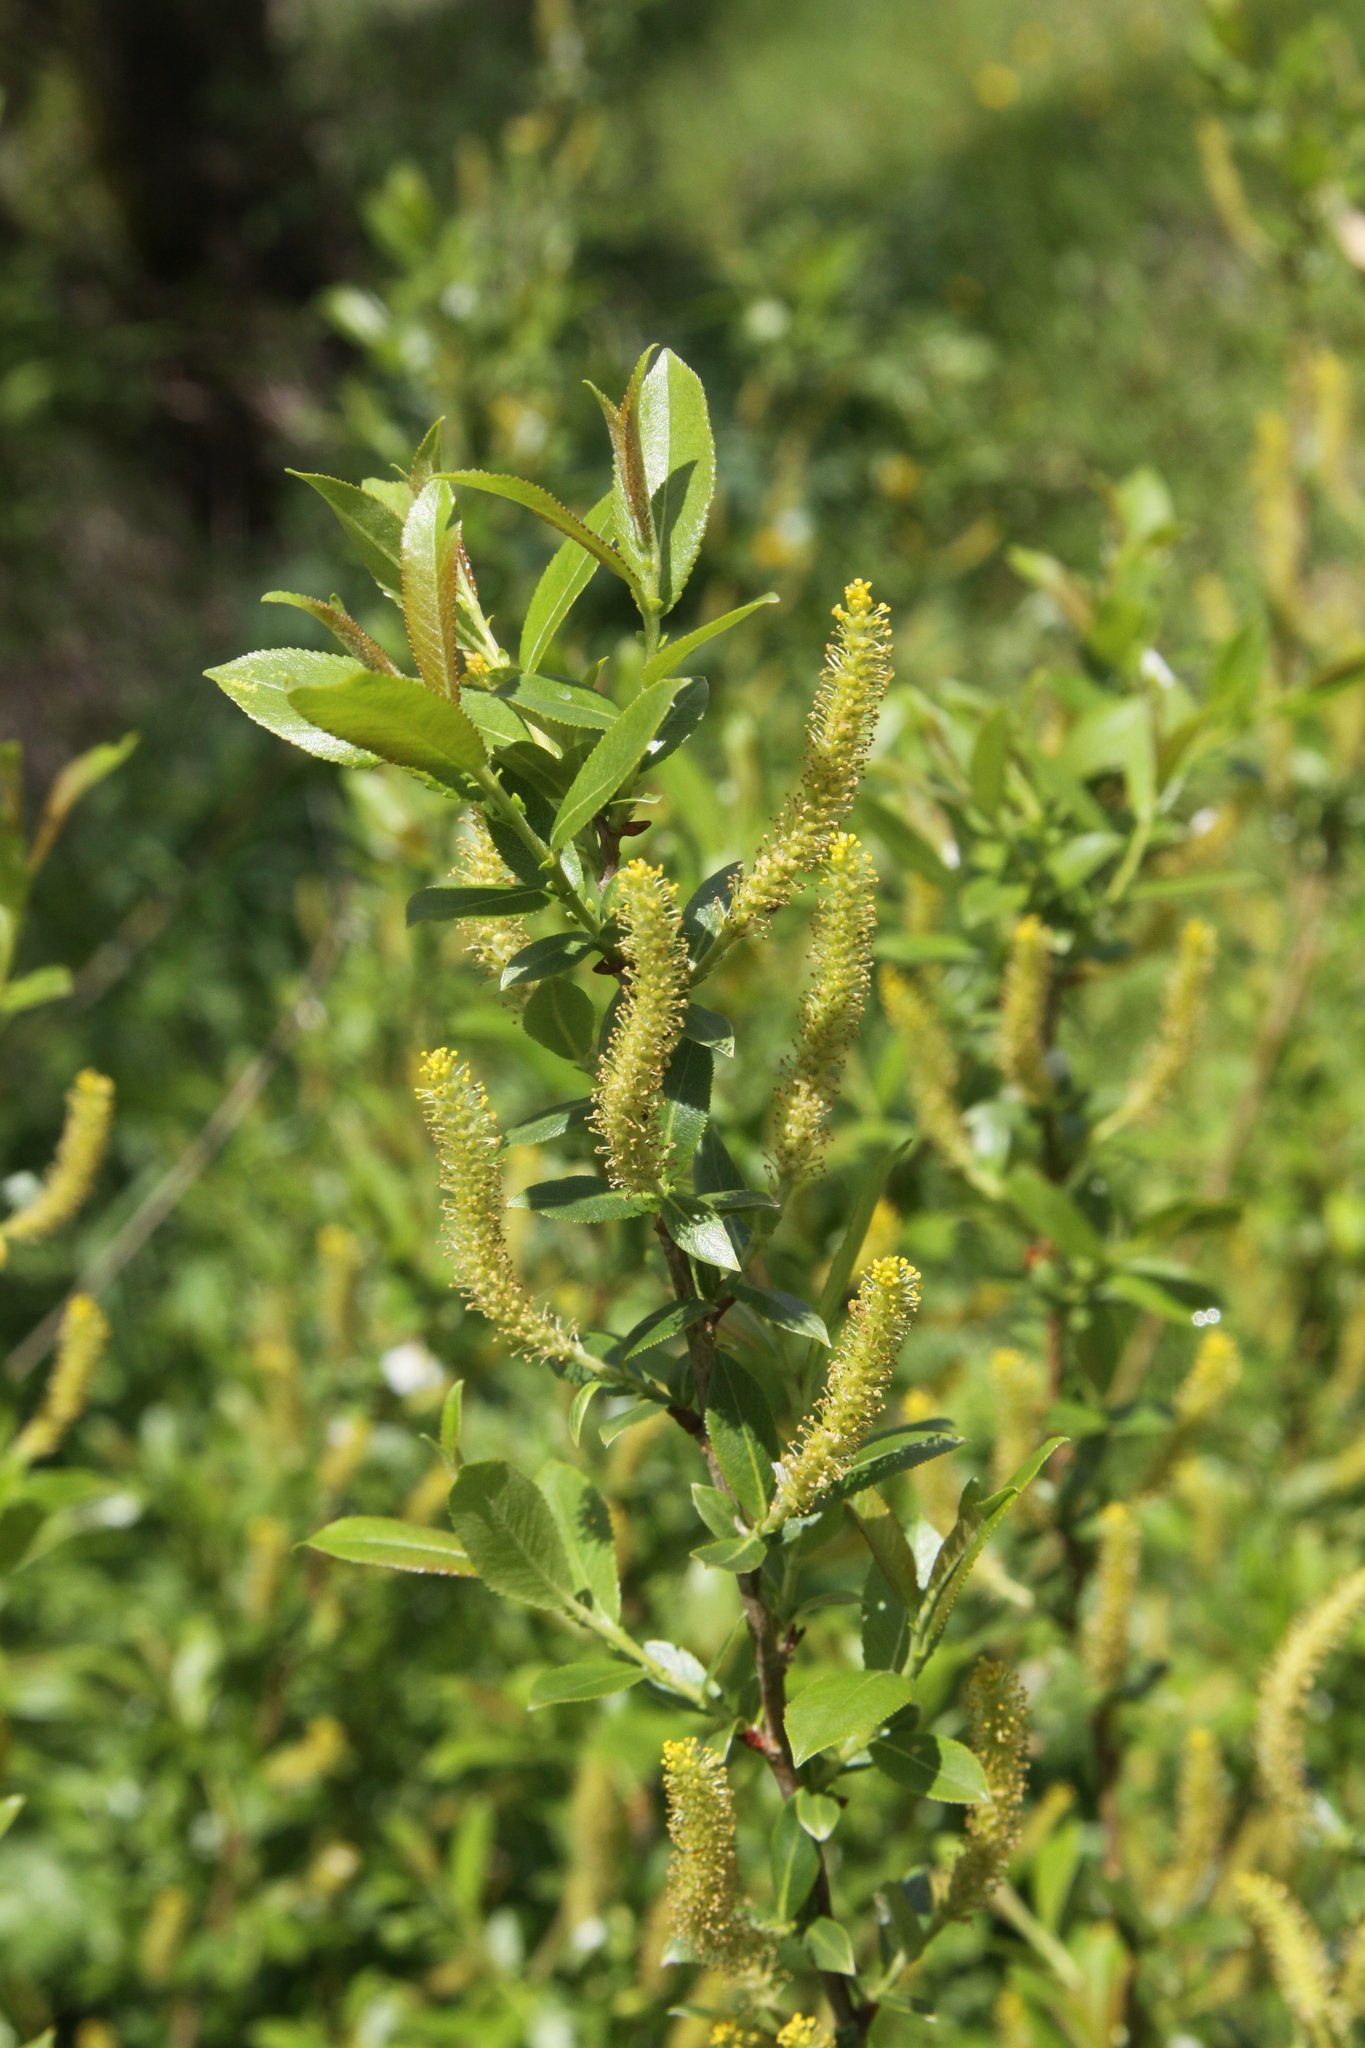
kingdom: Plantae
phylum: Tracheophyta
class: Magnoliopsida
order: Malpighiales
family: Salicaceae
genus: Salix
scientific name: Salix triandra
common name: Almond willow
